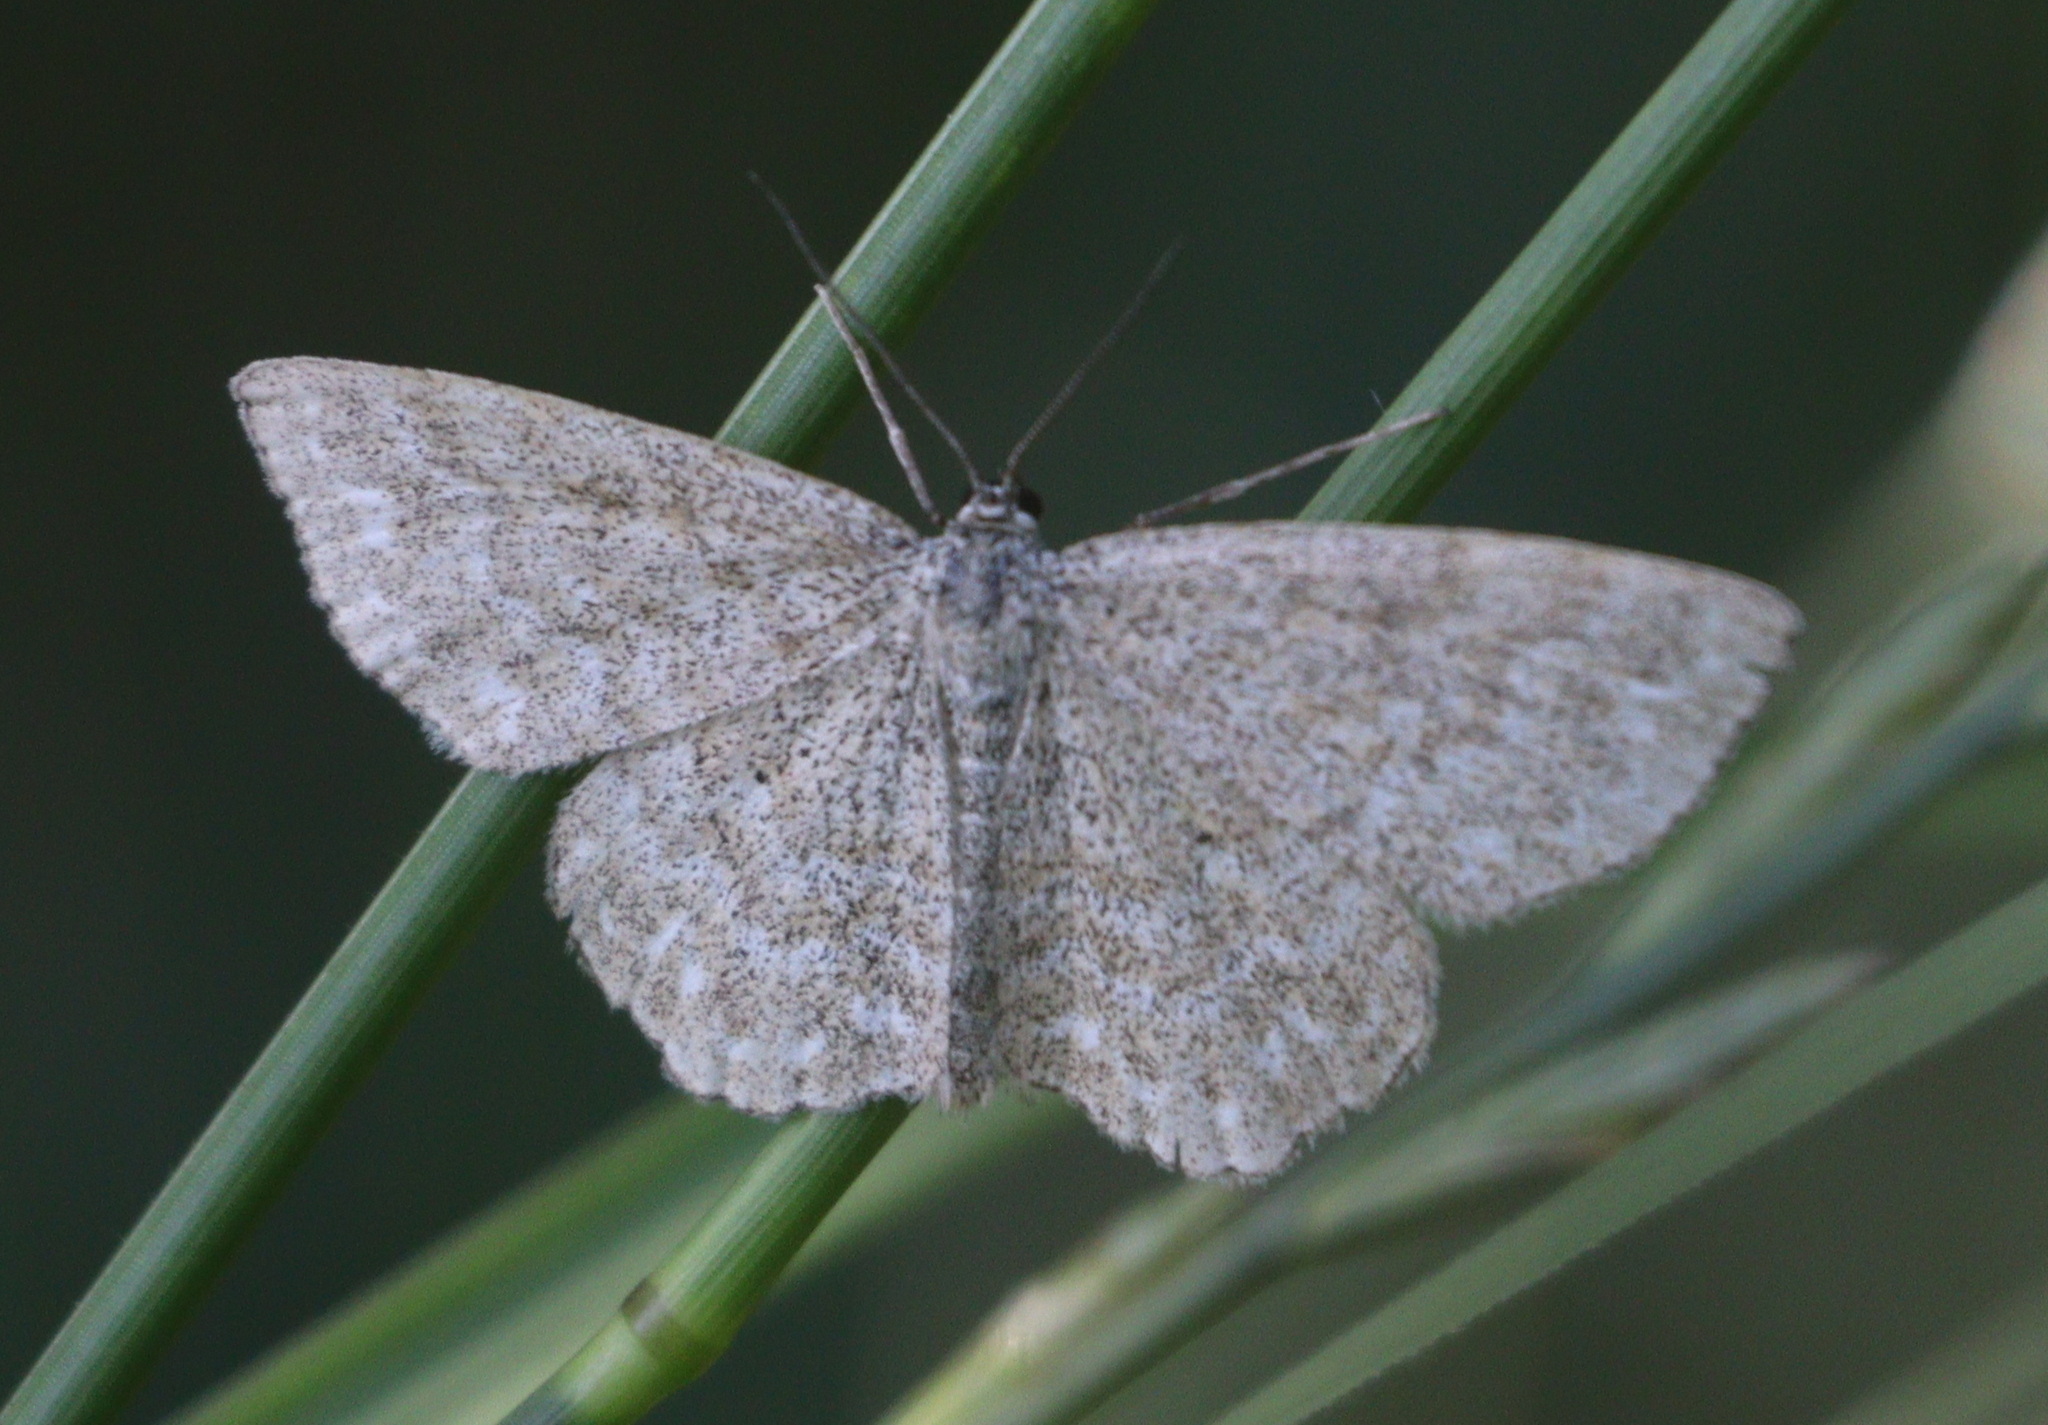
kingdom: Animalia
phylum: Arthropoda
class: Insecta
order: Lepidoptera
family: Geometridae
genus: Scopula
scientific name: Scopula immorata
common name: Lewes wave
